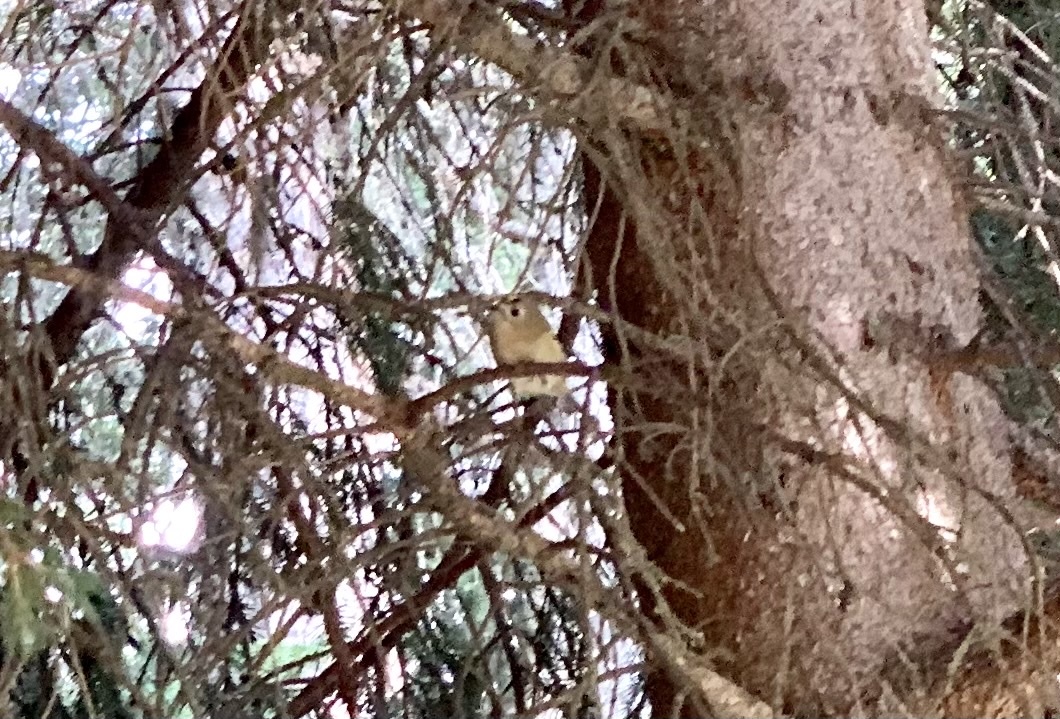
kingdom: Animalia
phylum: Chordata
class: Aves
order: Passeriformes
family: Regulidae
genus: Regulus
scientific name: Regulus regulus
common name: Goldcrest
